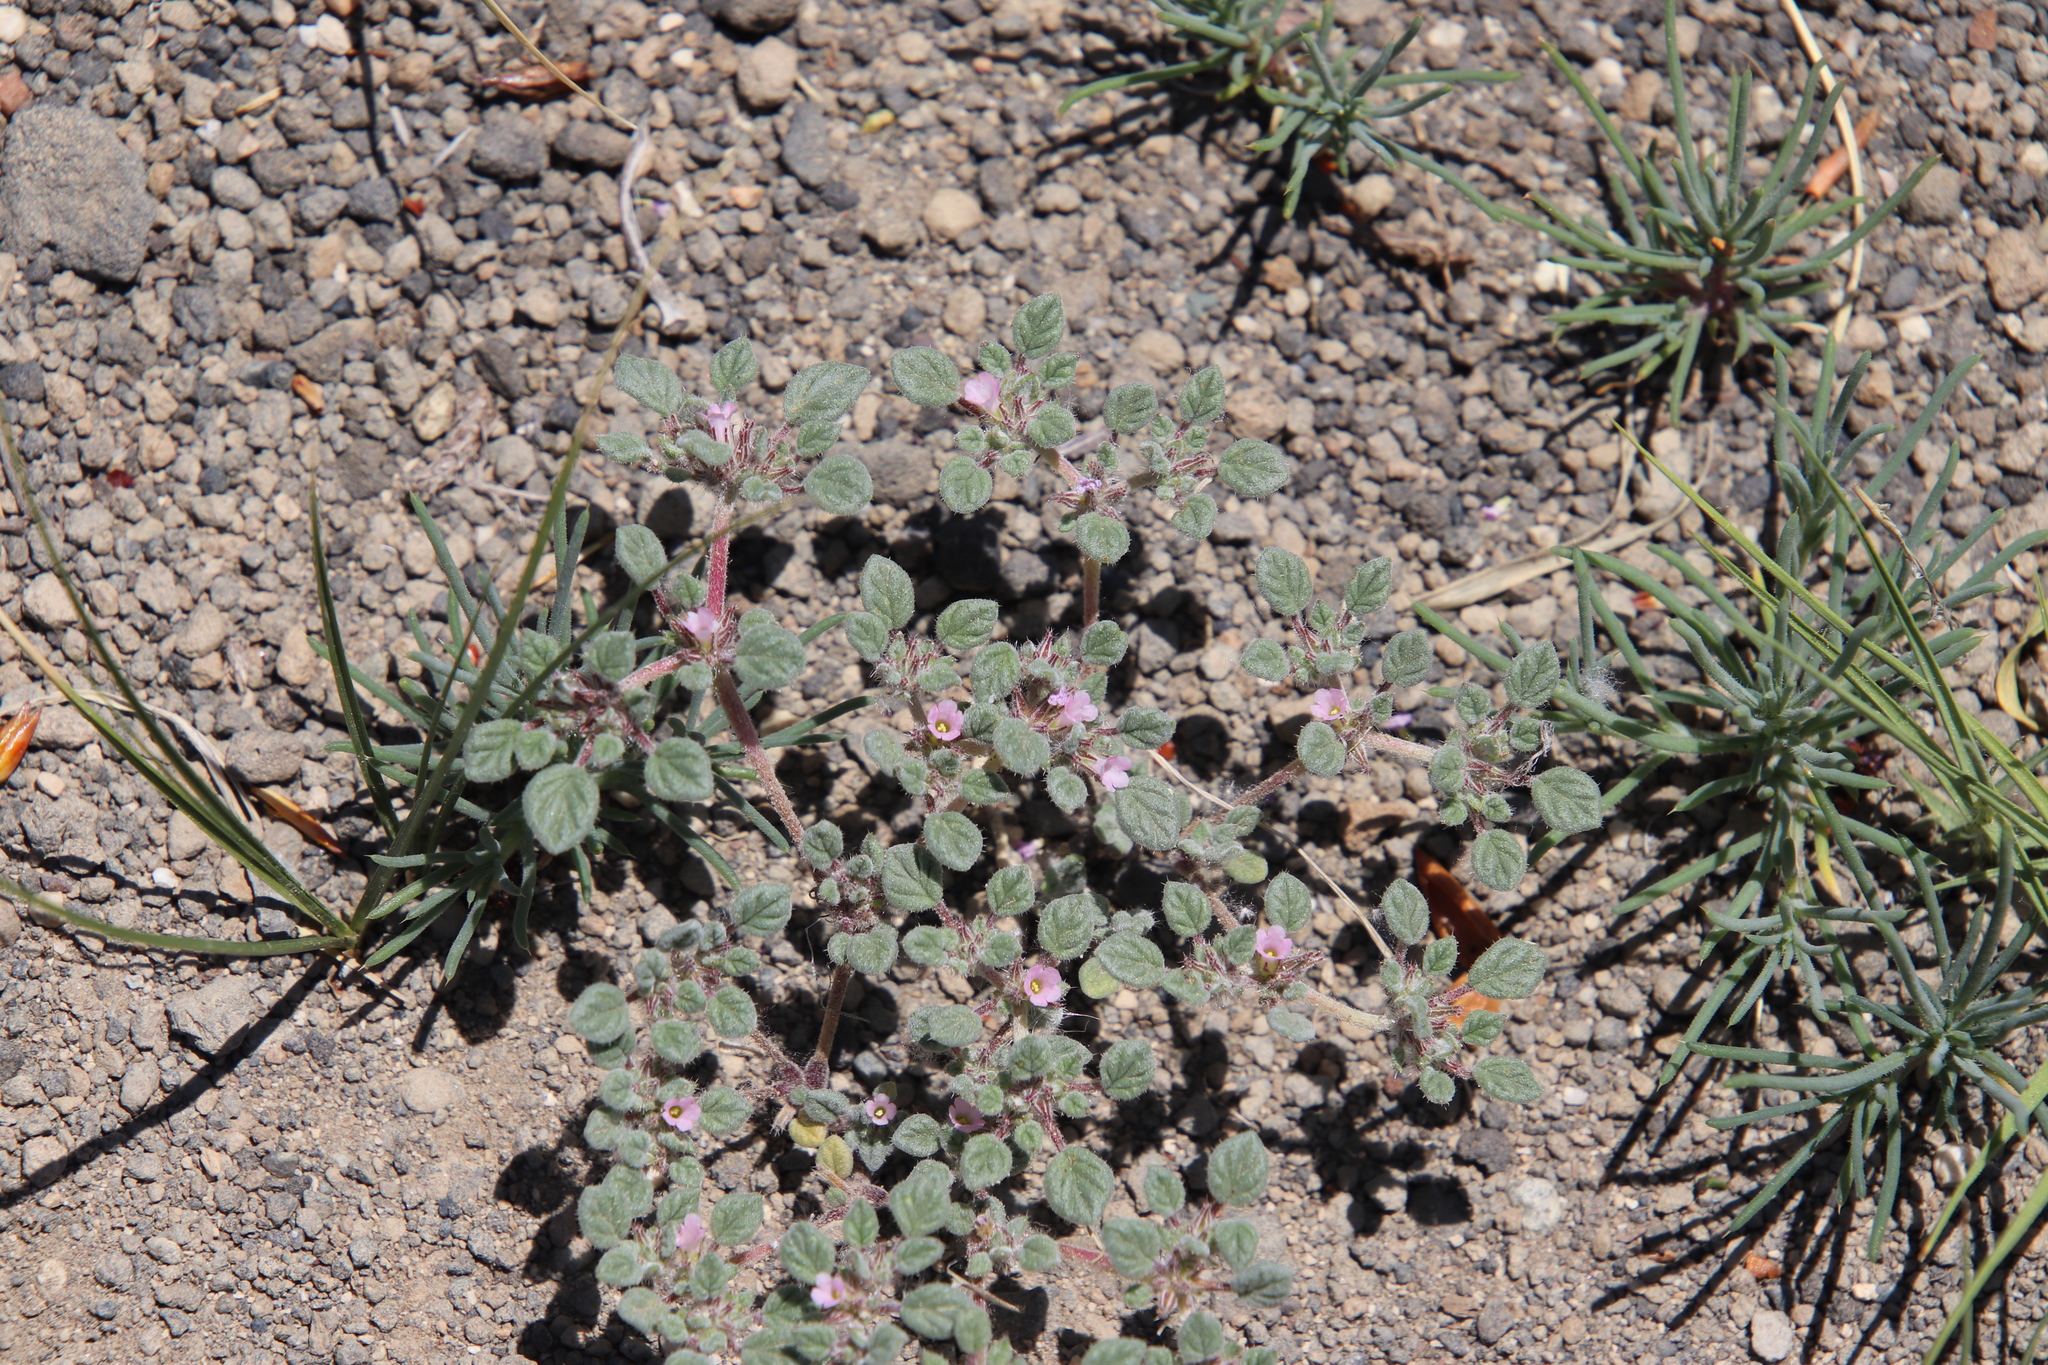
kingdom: Plantae
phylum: Tracheophyta
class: Magnoliopsida
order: Boraginales
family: Ehretiaceae
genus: Tiquilia
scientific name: Tiquilia nuttallii
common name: Rosette tiquilia
